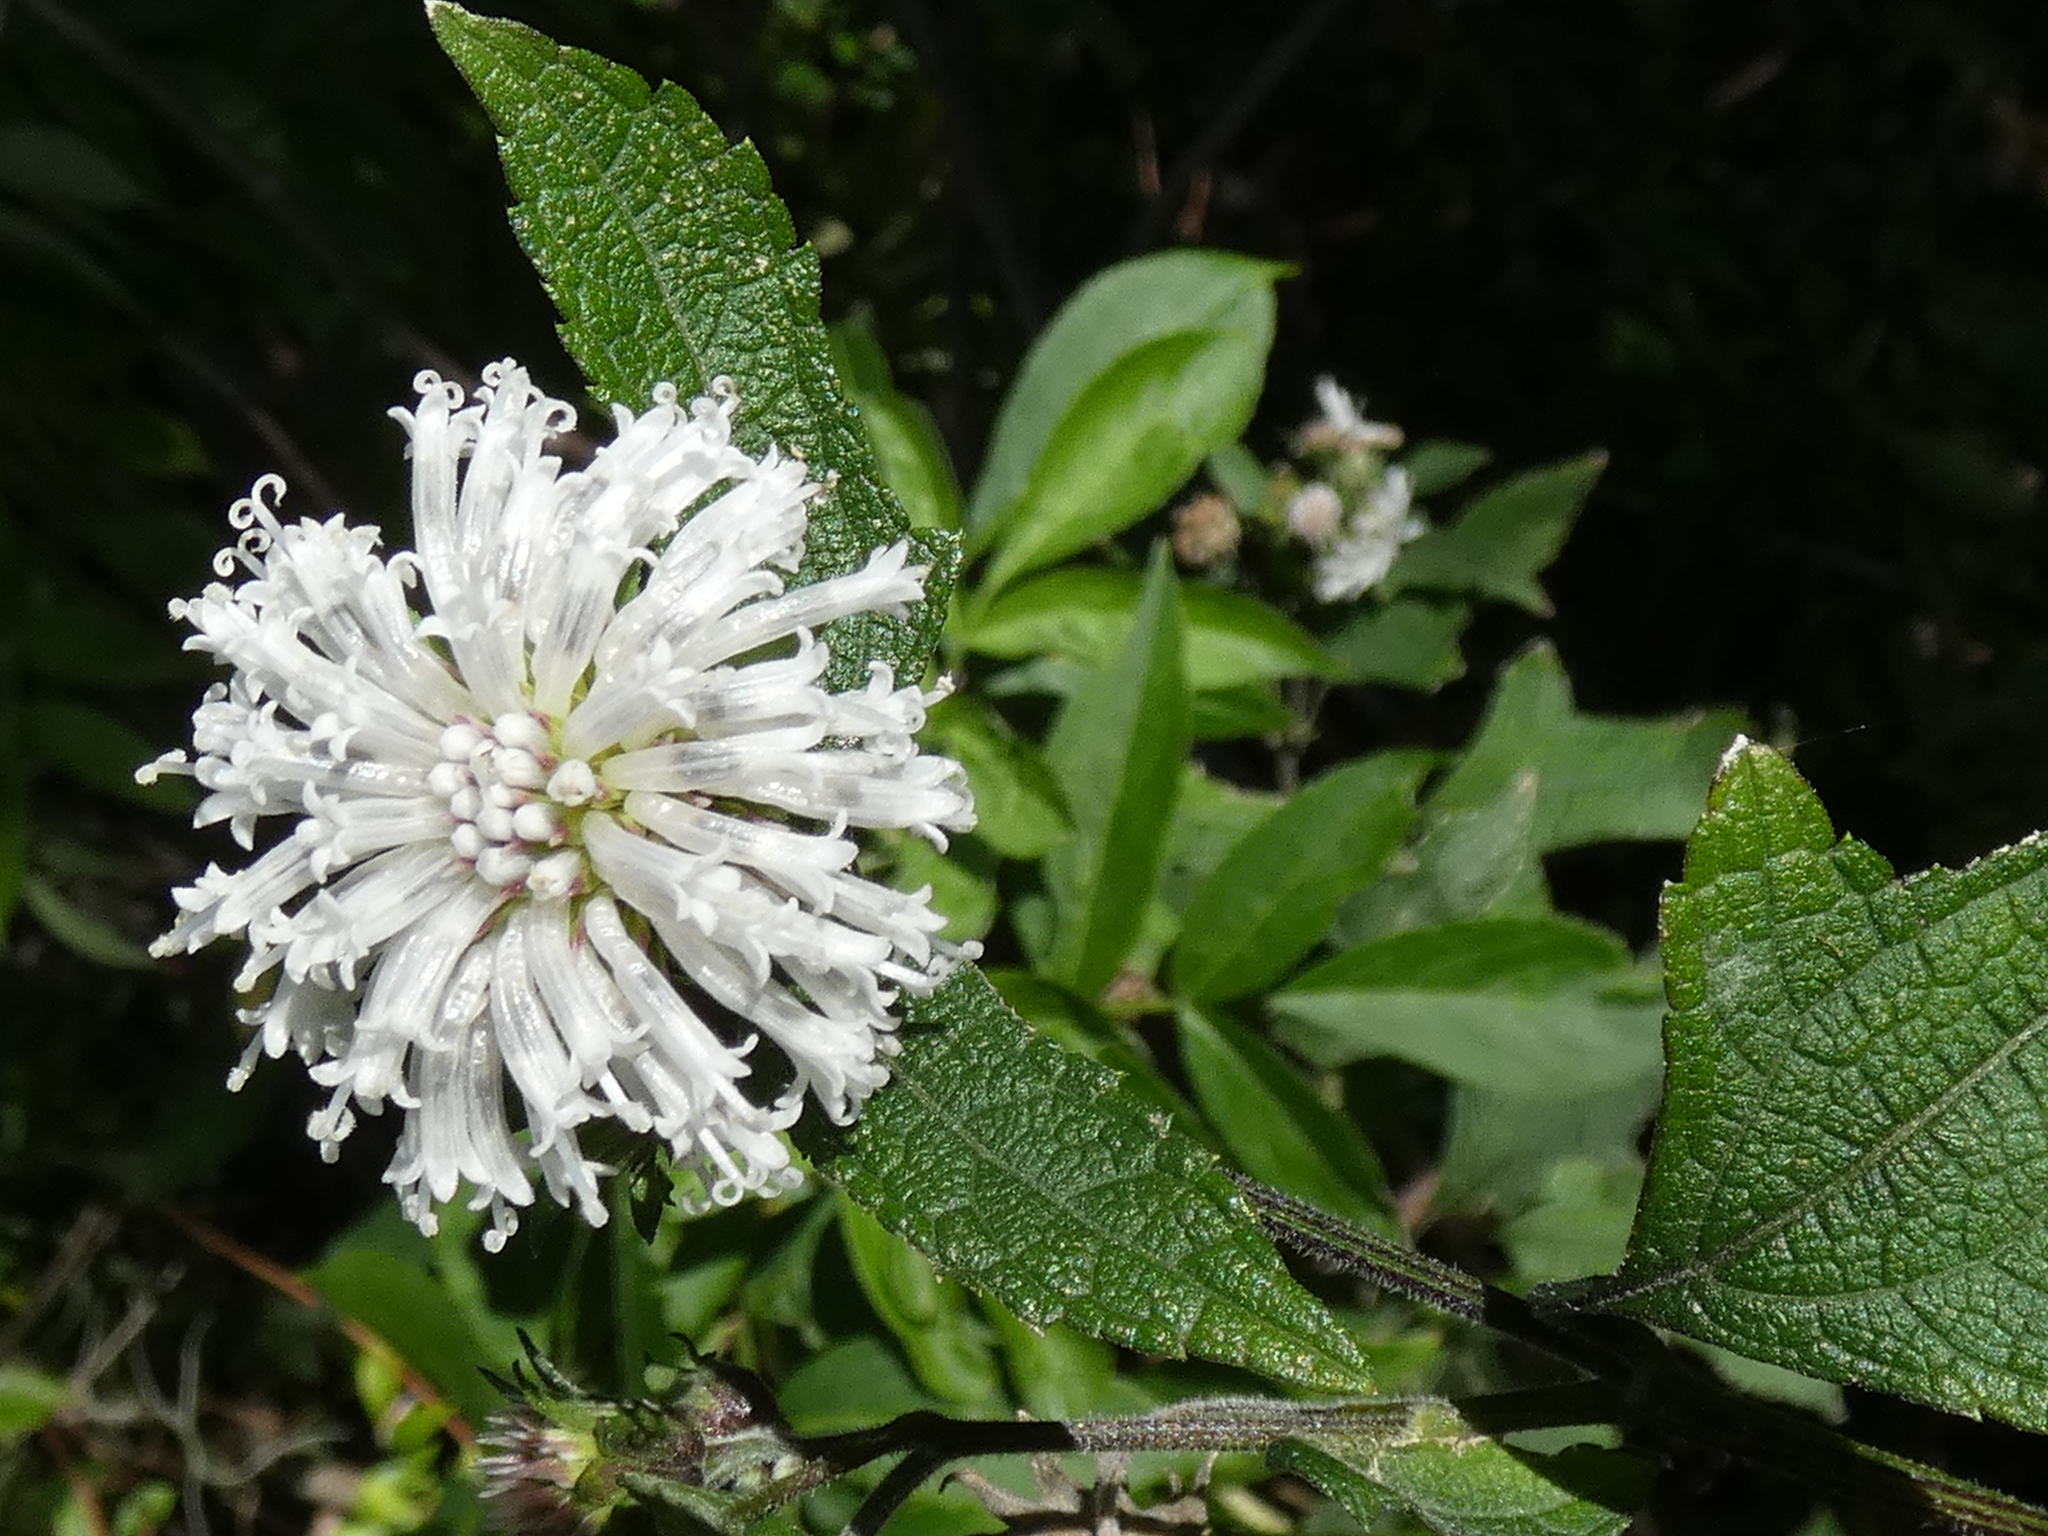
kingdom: Plantae
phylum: Tracheophyta
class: Magnoliopsida
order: Asterales
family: Asteraceae
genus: Melanthera
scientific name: Melanthera nivea
